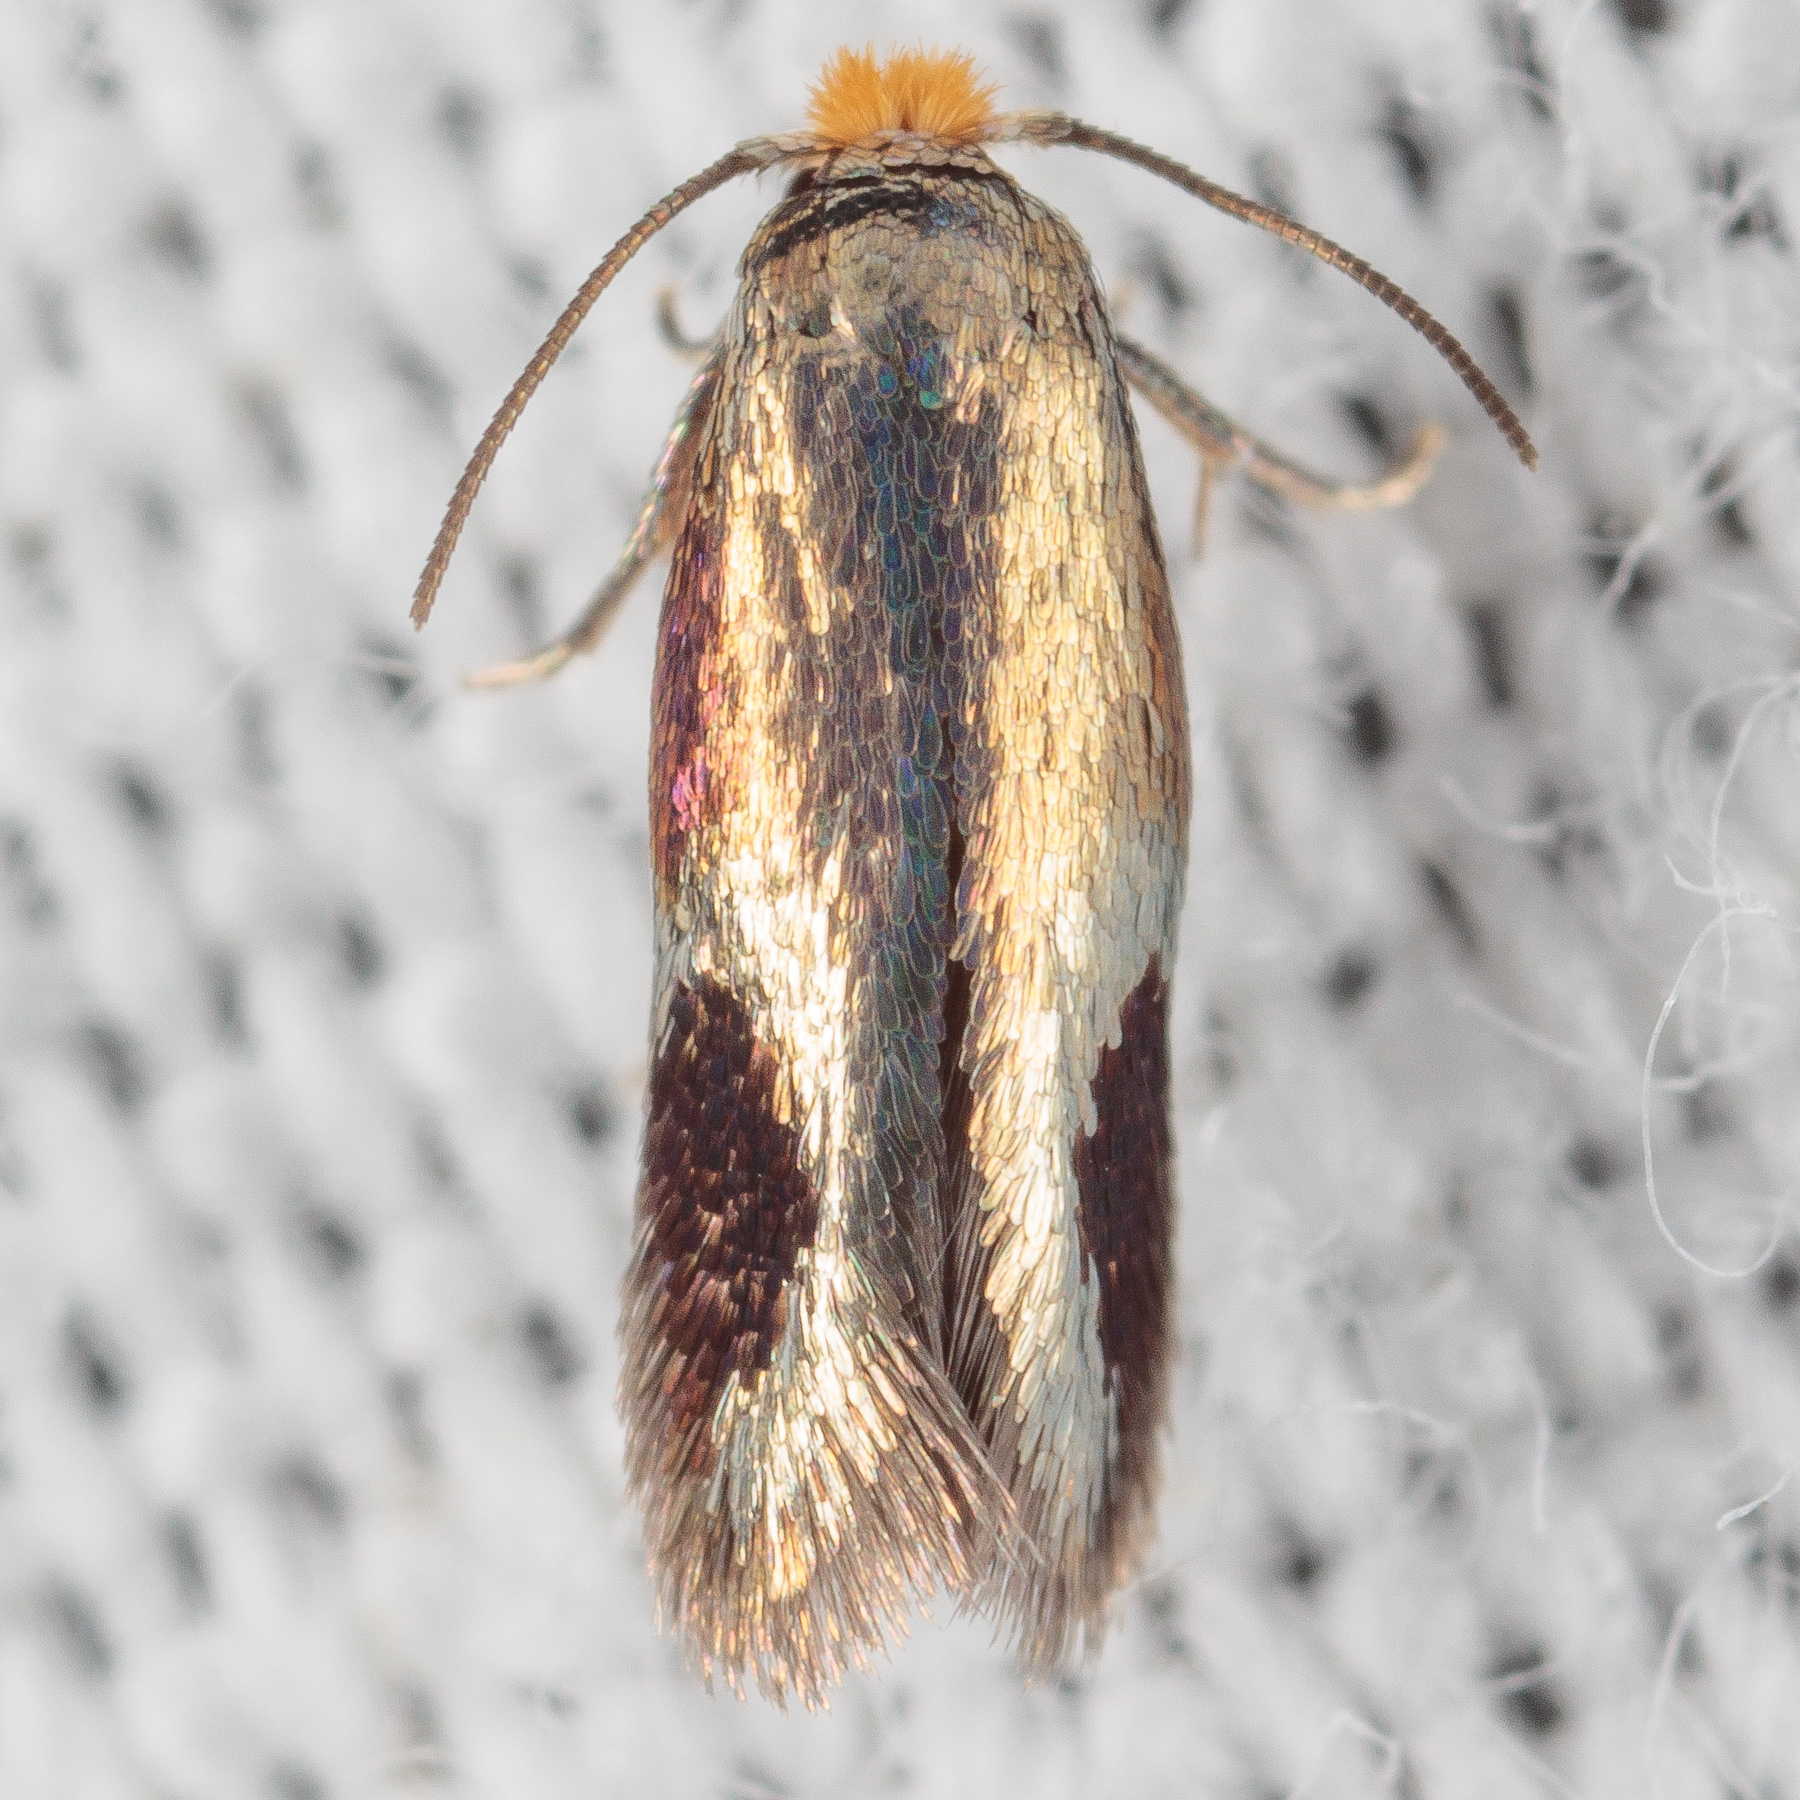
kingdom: Animalia
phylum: Arthropoda
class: Insecta
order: Lepidoptera
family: Nepticulidae
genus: Stigmella
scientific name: Stigmella resplendensella
